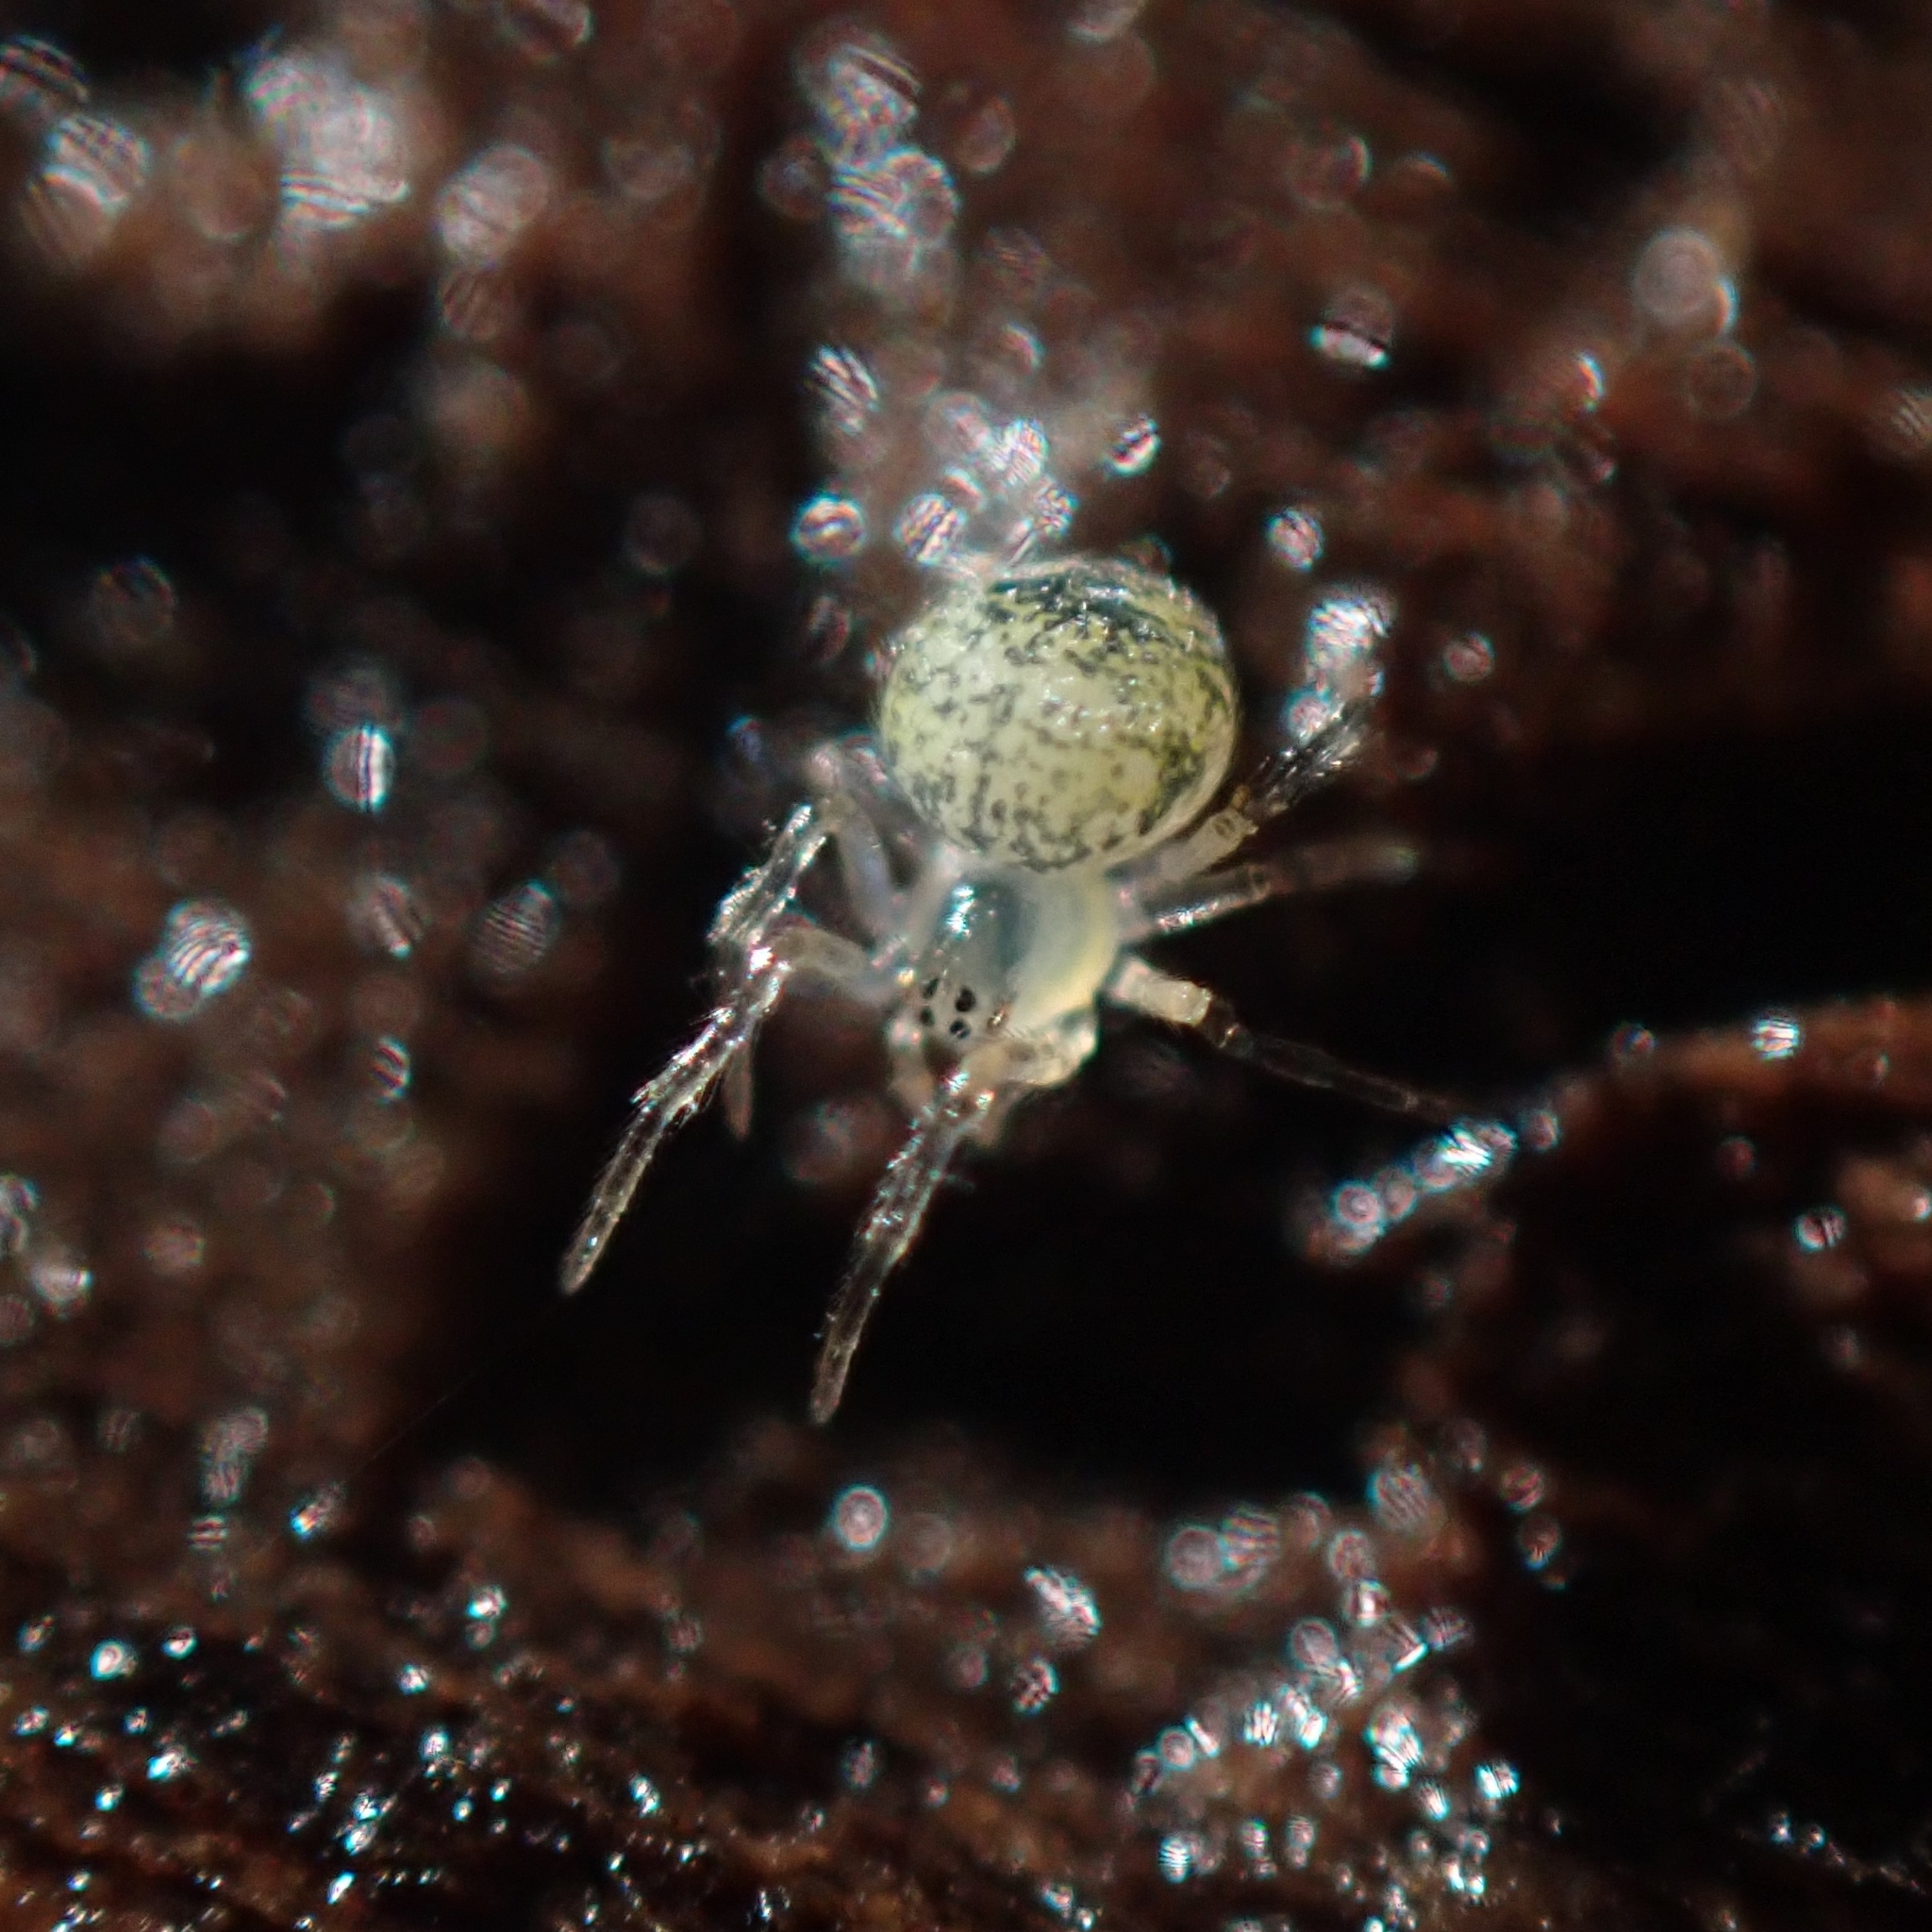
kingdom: Animalia
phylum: Arthropoda
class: Arachnida
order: Araneae
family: Theridiidae
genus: Paidiscura
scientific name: Paidiscura pallens
